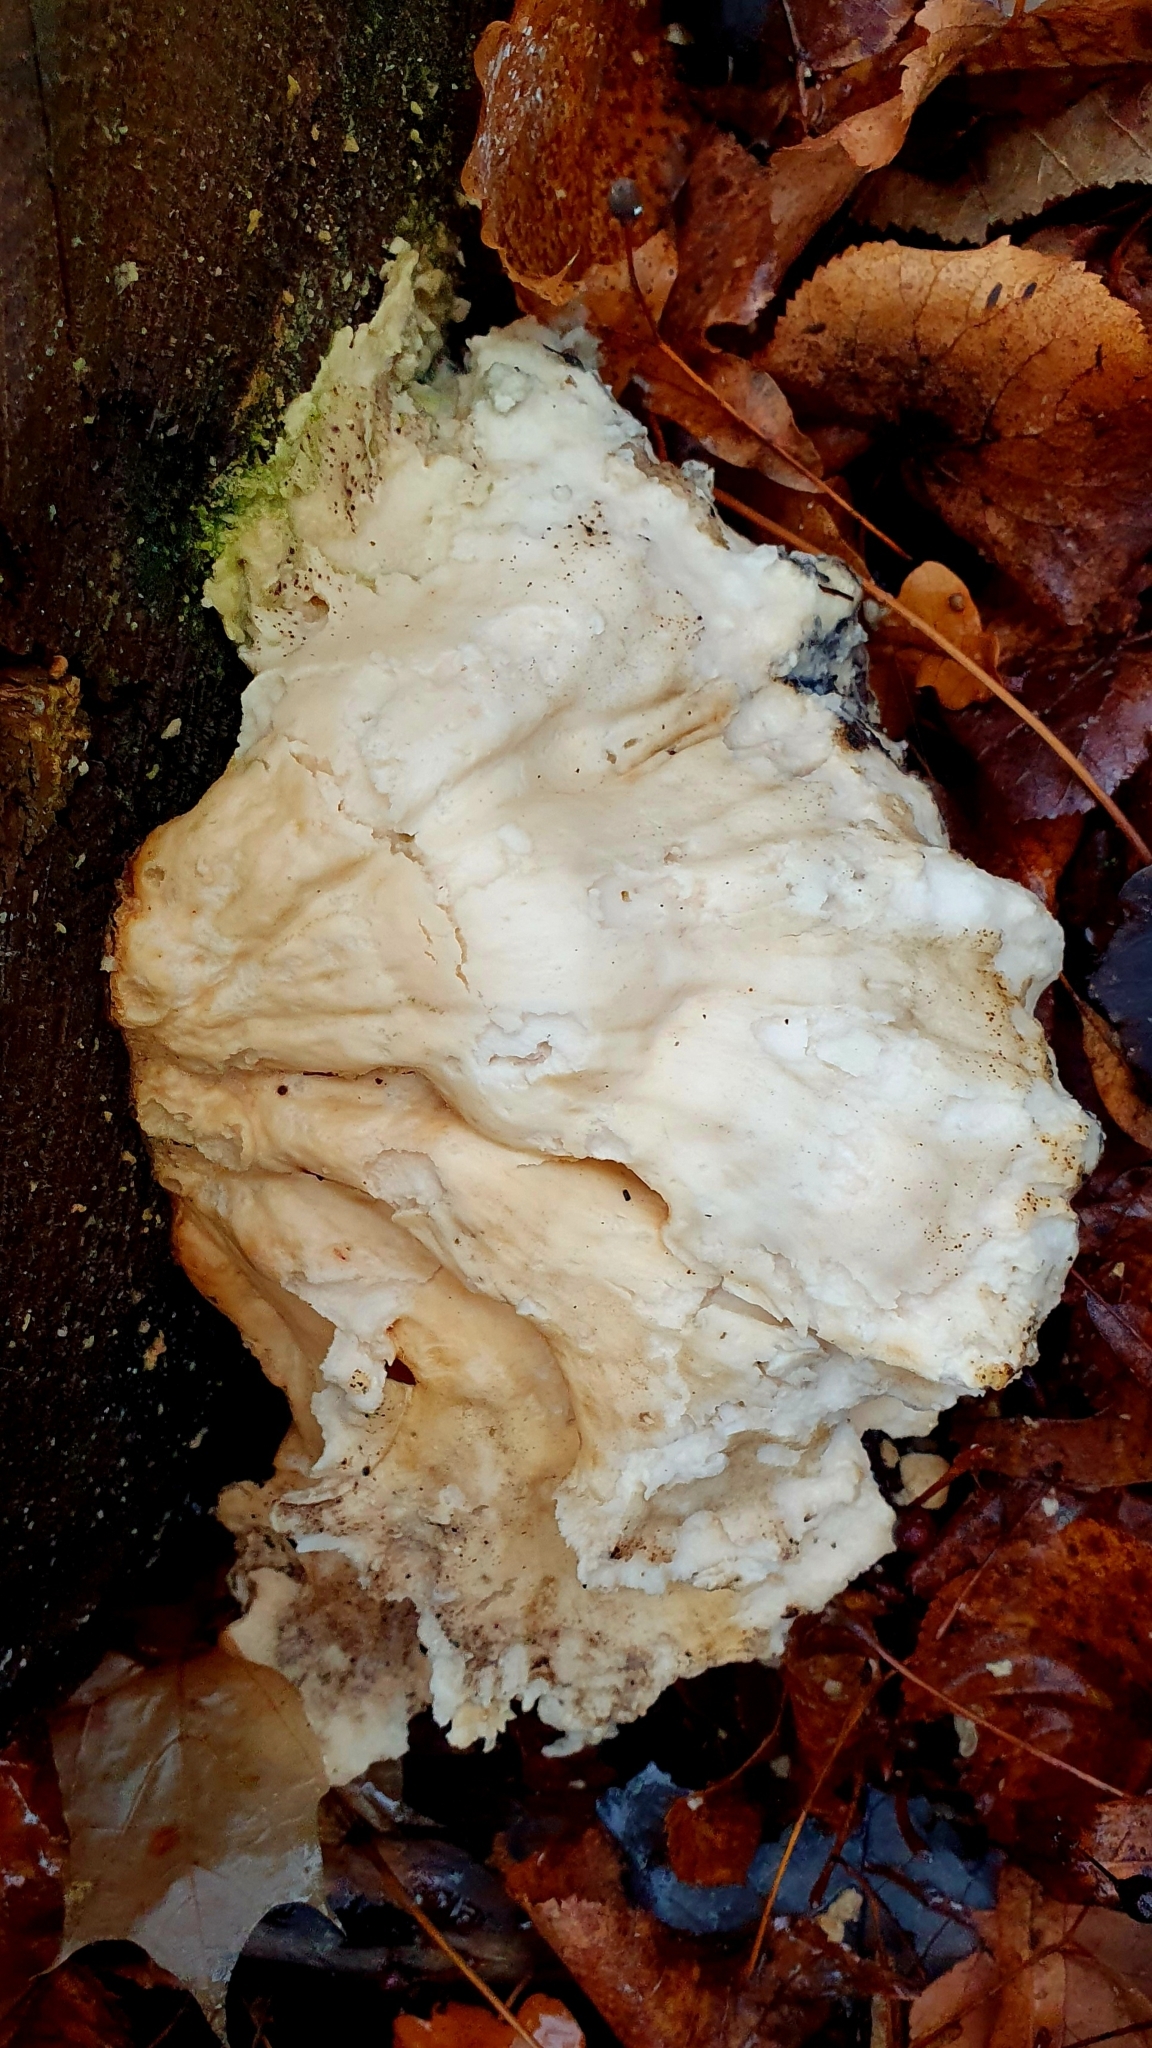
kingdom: Fungi
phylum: Basidiomycota
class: Agaricomycetes
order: Polyporales
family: Laetiporaceae
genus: Laetiporus
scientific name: Laetiporus sulphureus
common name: Chicken of the woods
